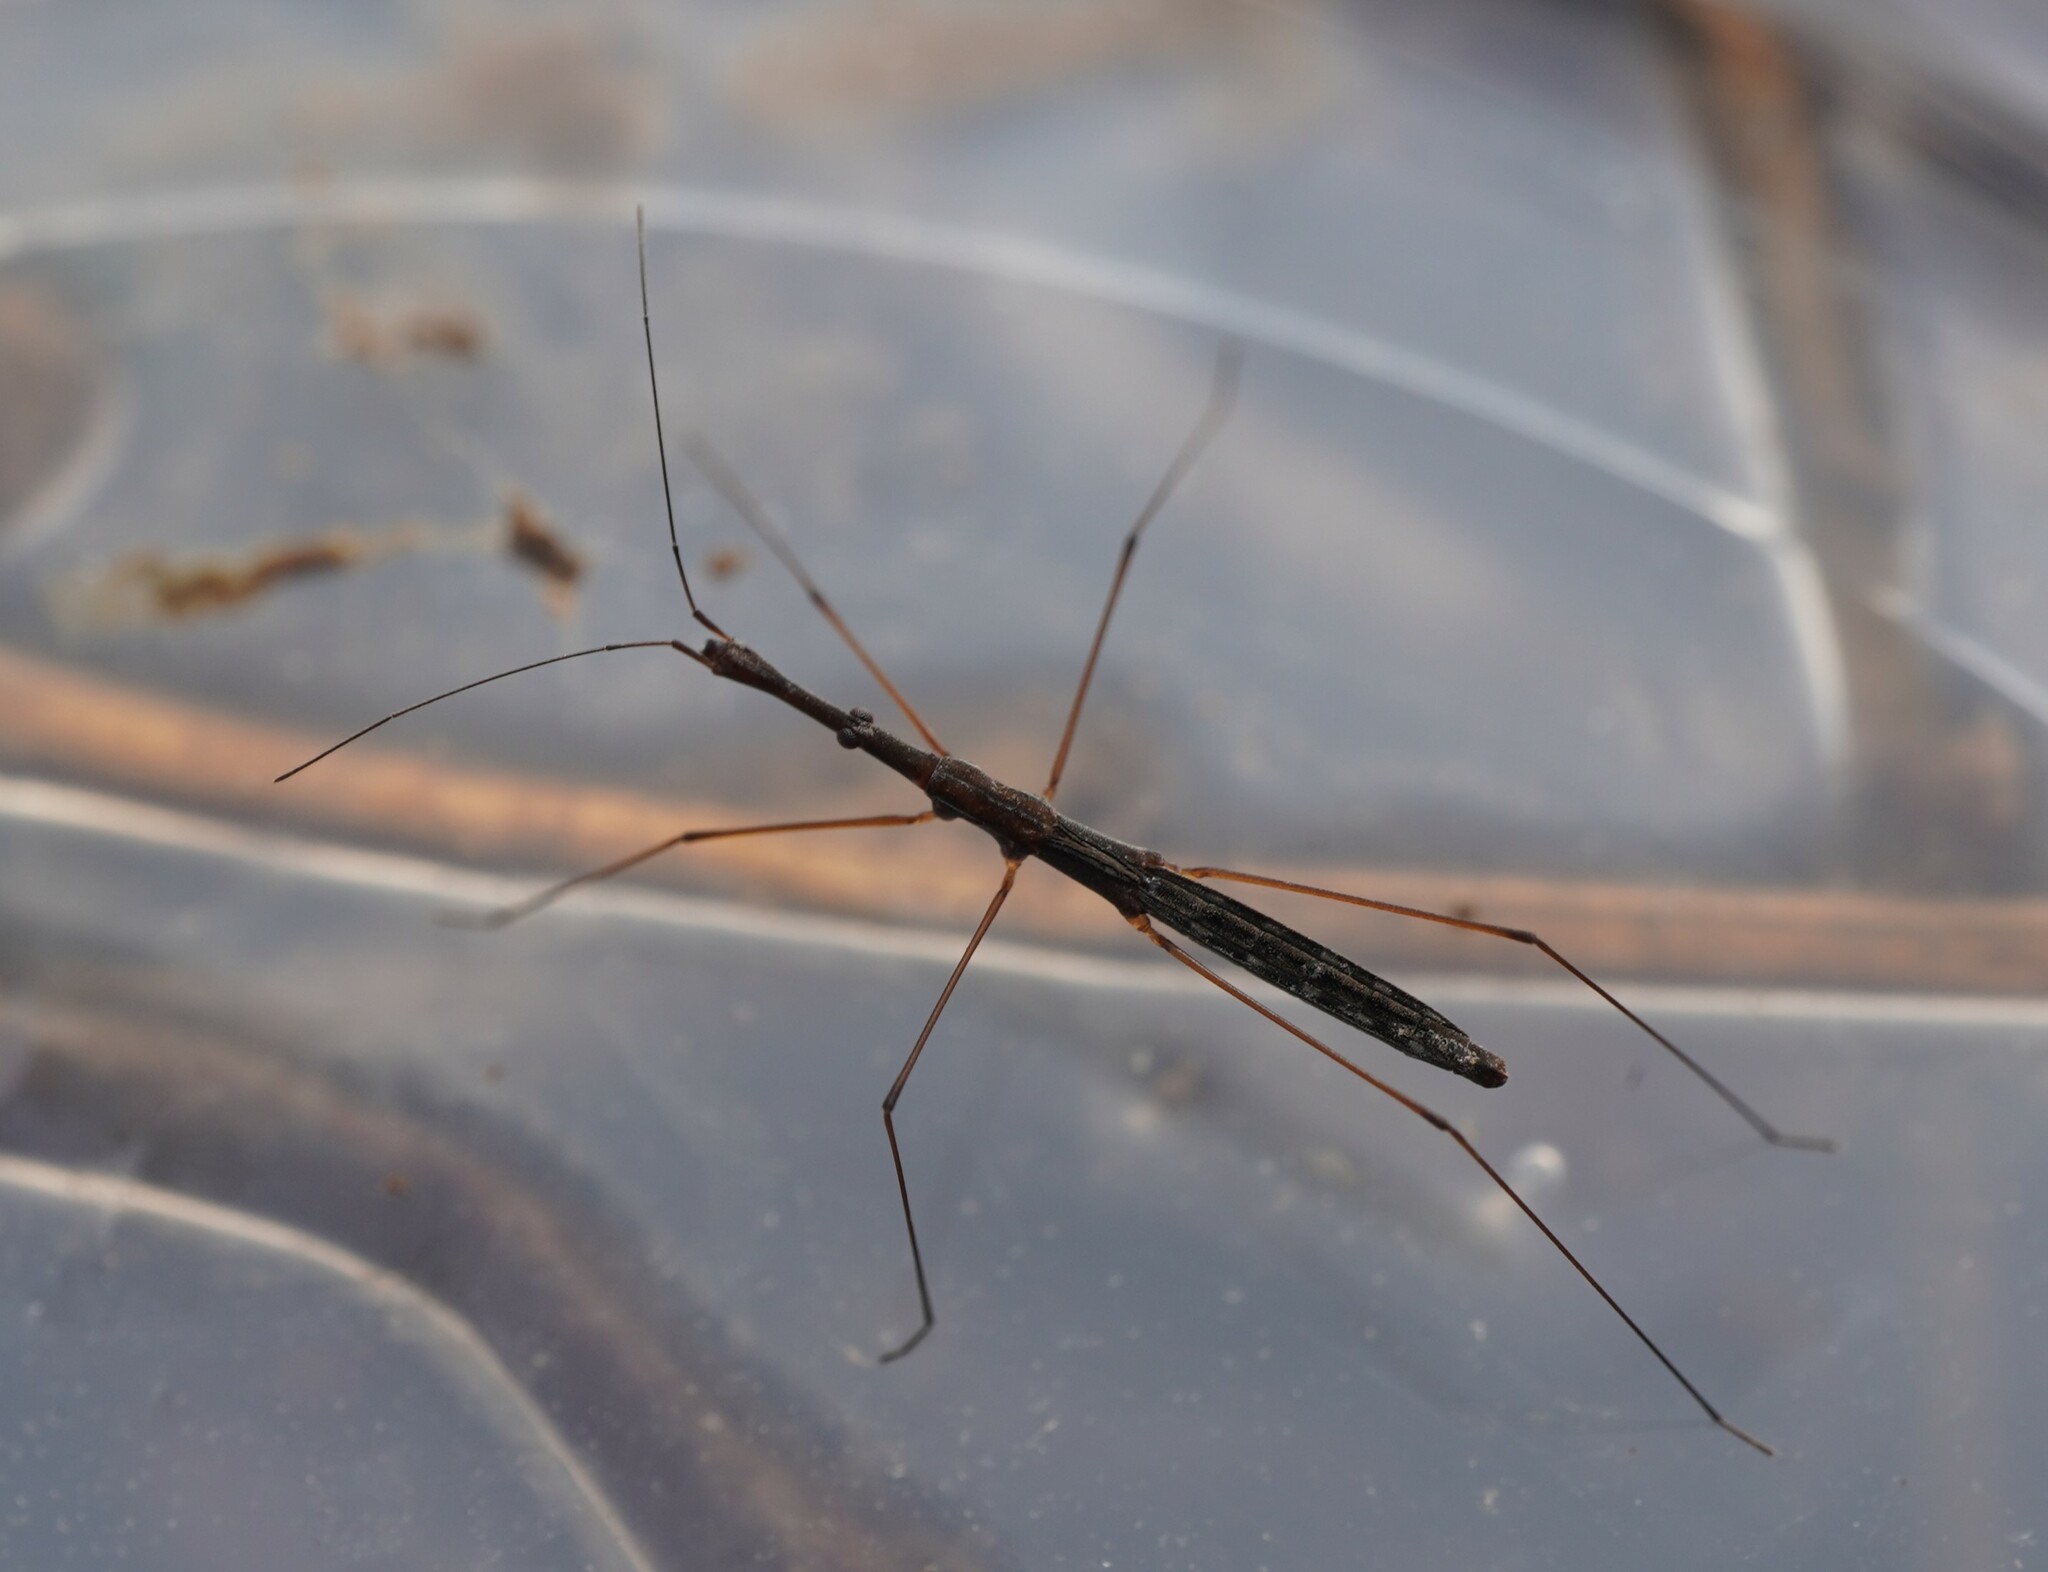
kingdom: Animalia
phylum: Arthropoda
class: Insecta
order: Hemiptera
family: Hydrometridae
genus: Hydrometra
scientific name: Hydrometra stagnorum
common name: Water measurer
